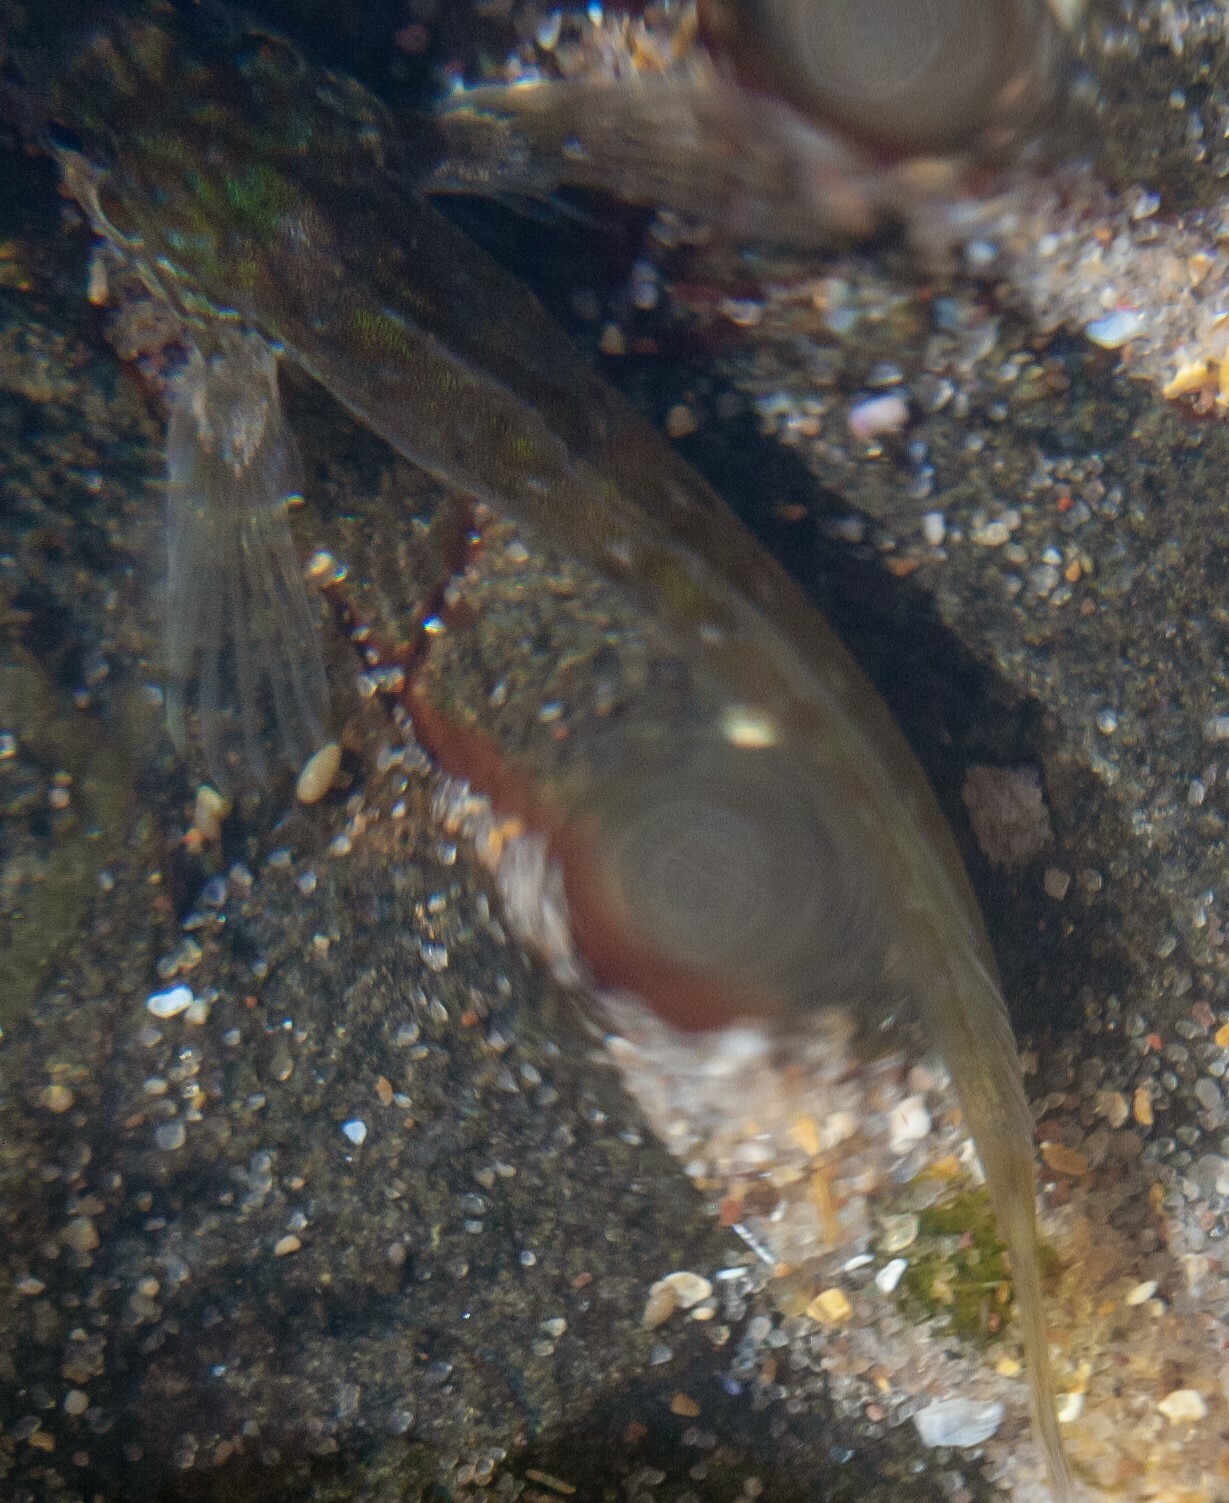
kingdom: Animalia
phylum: Chordata
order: Perciformes
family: Blenniidae
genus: Lipophrys
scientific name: Lipophrys pholis
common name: Shanny
